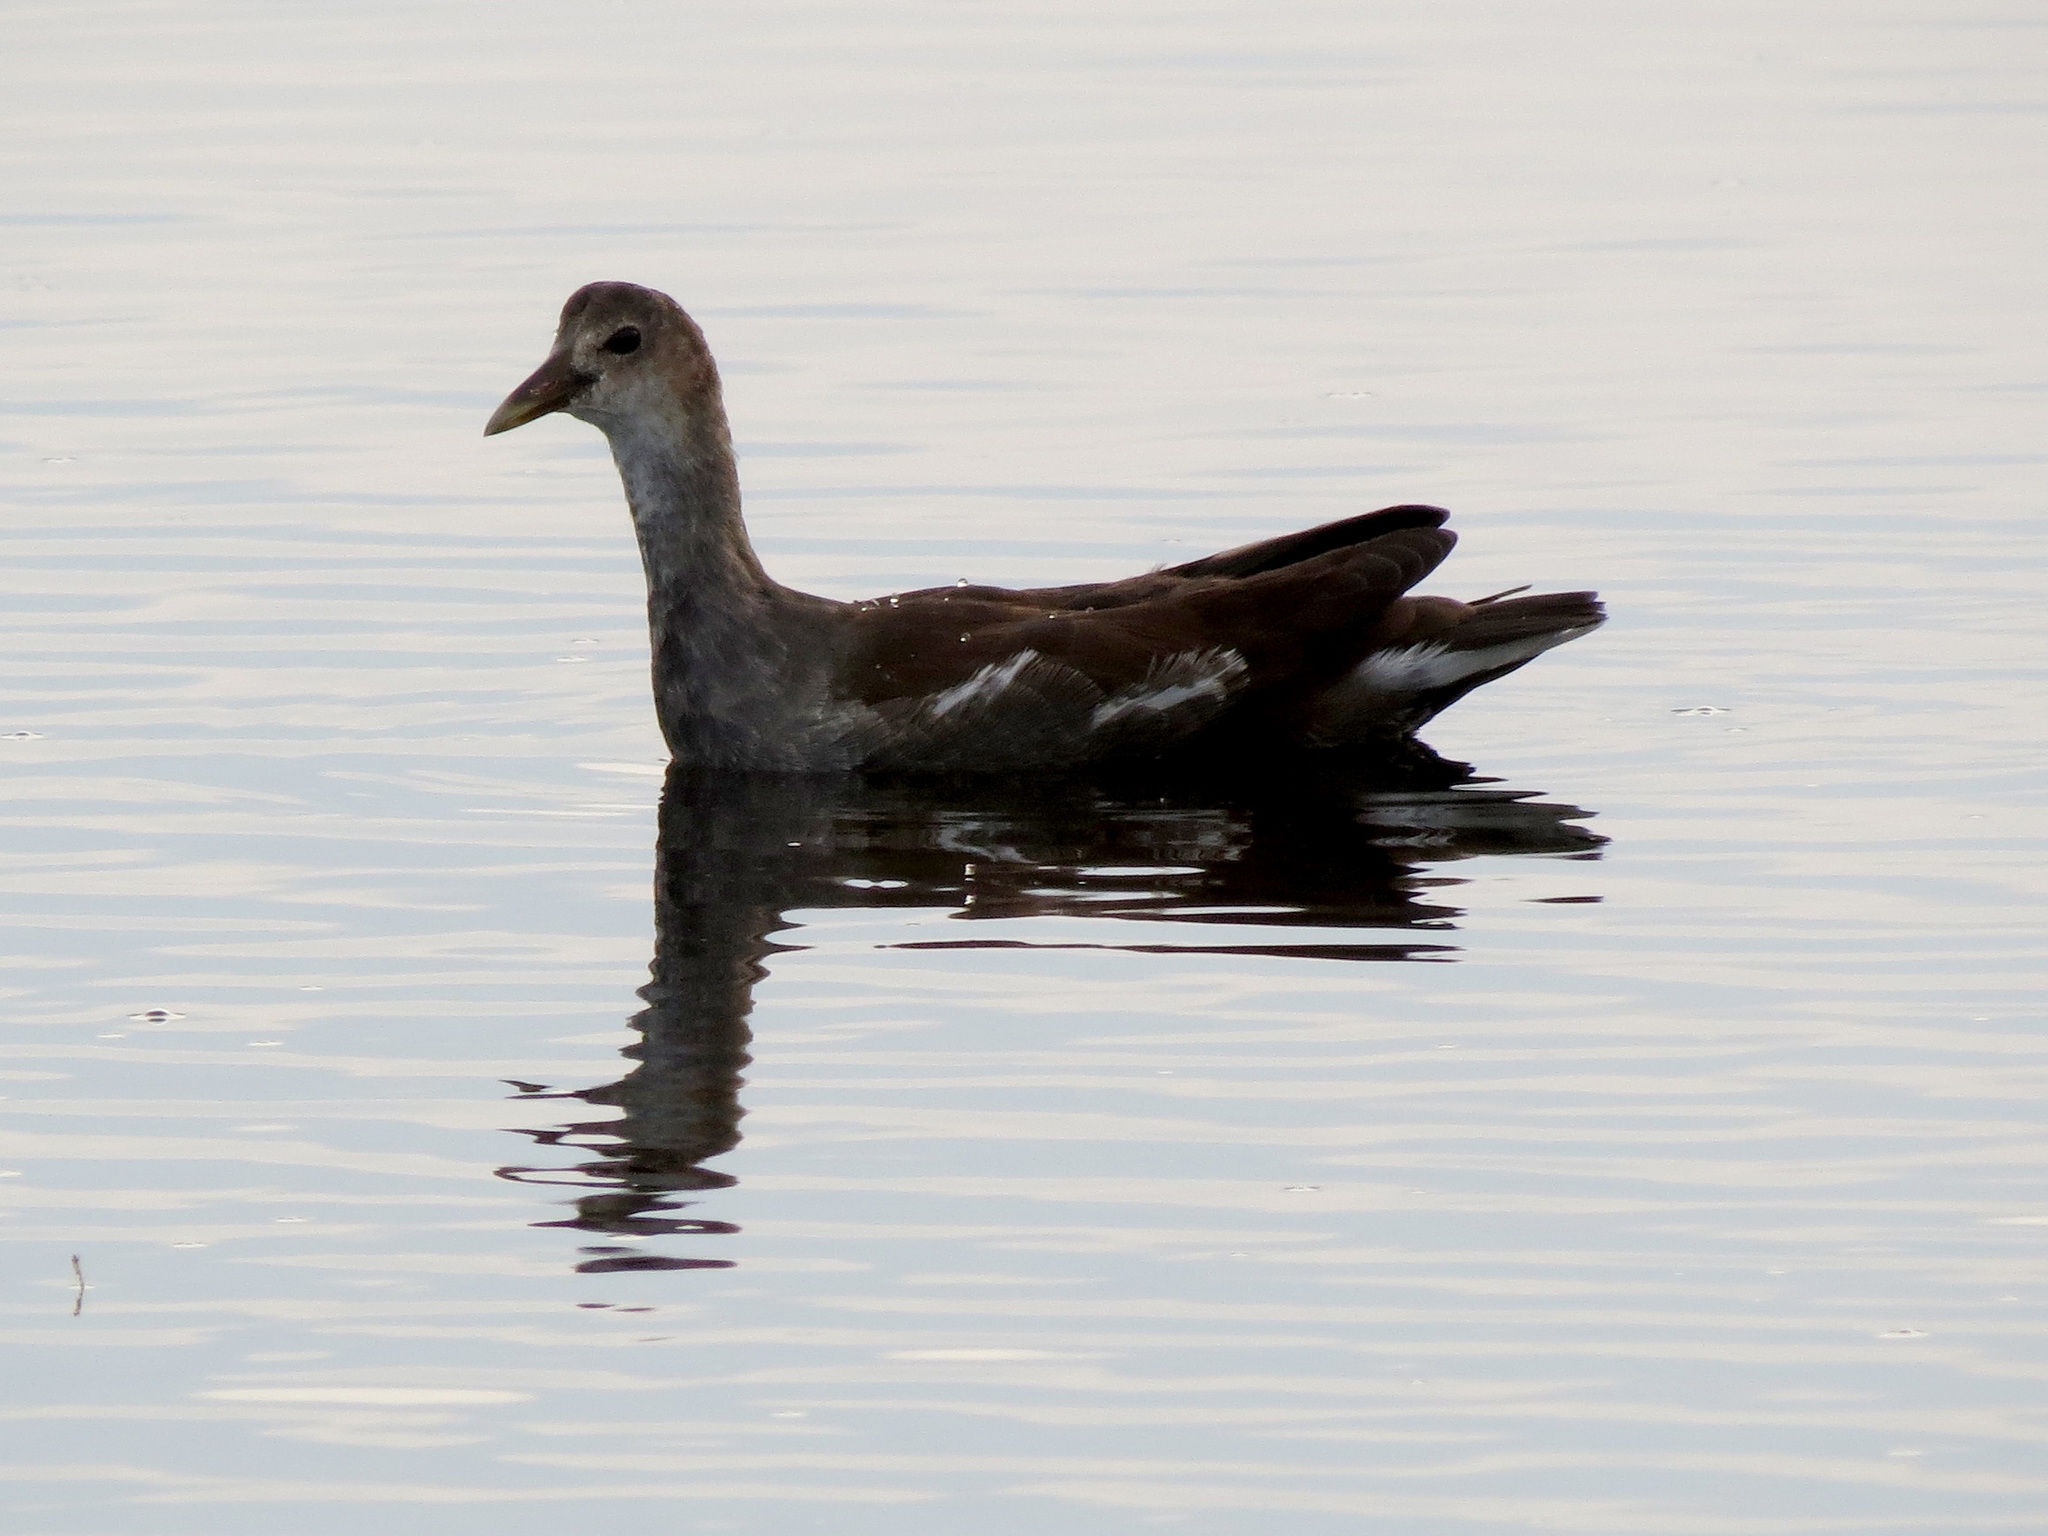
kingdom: Animalia
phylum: Chordata
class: Aves
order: Gruiformes
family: Rallidae
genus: Gallinula
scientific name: Gallinula chloropus
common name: Common moorhen
